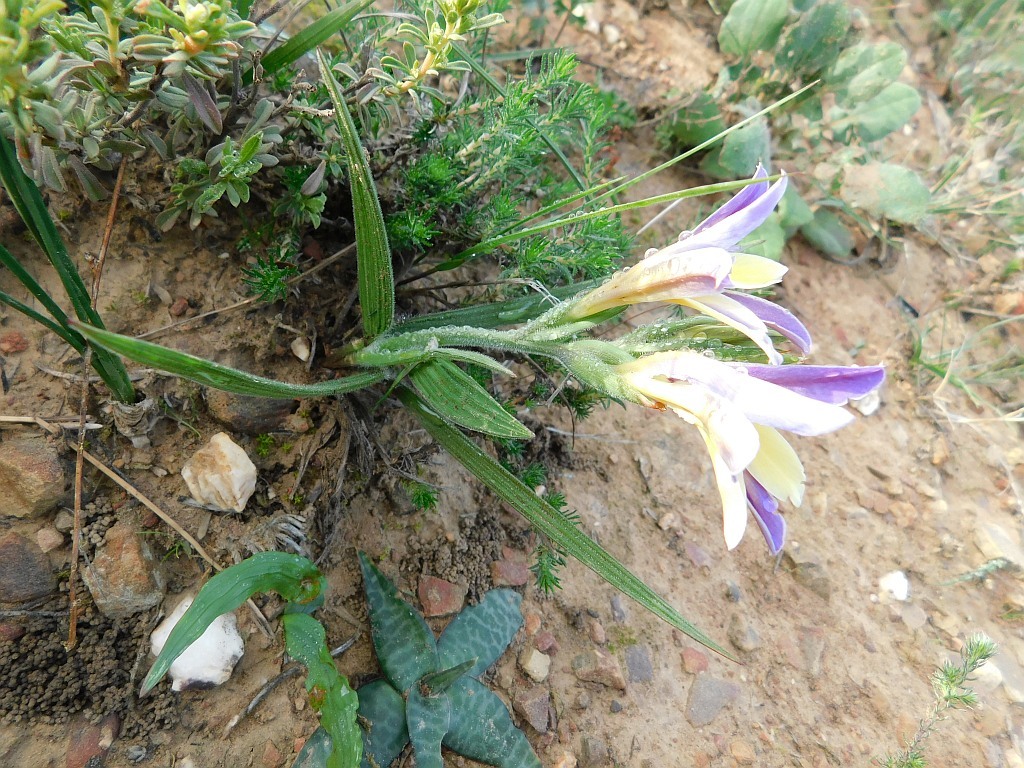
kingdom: Plantae
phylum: Tracheophyta
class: Liliopsida
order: Asparagales
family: Iridaceae
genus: Babiana
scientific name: Babiana patula
